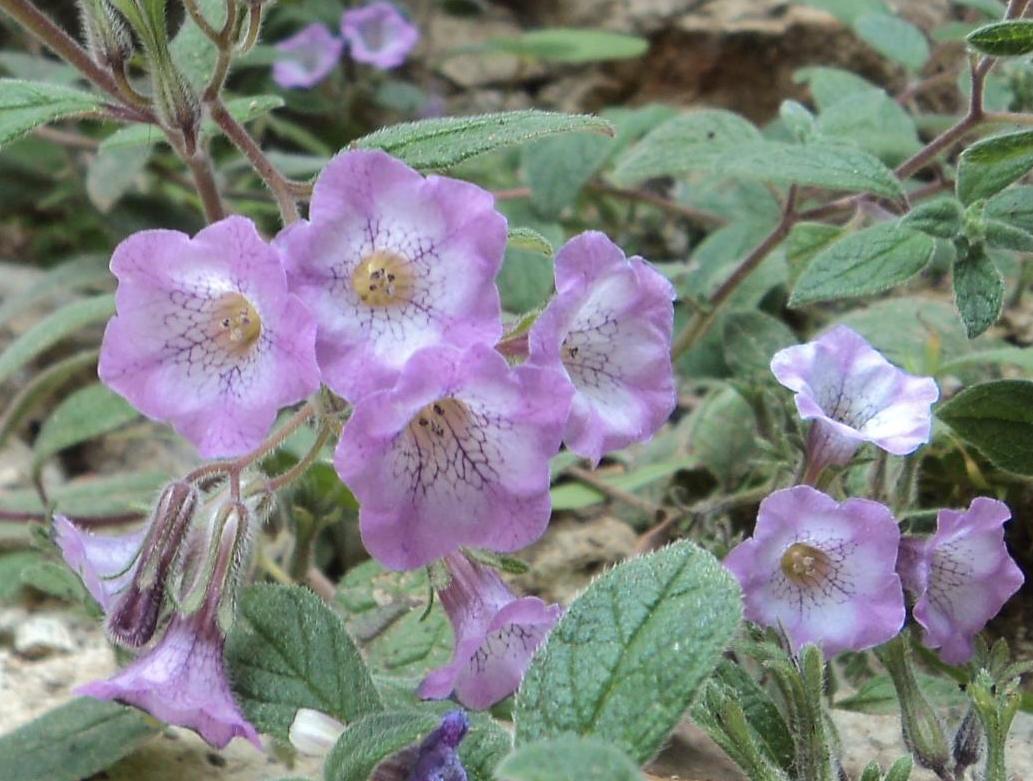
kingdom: Plantae
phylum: Tracheophyta
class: Magnoliopsida
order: Boraginales
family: Namaceae
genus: Nama
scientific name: Nama sericea
